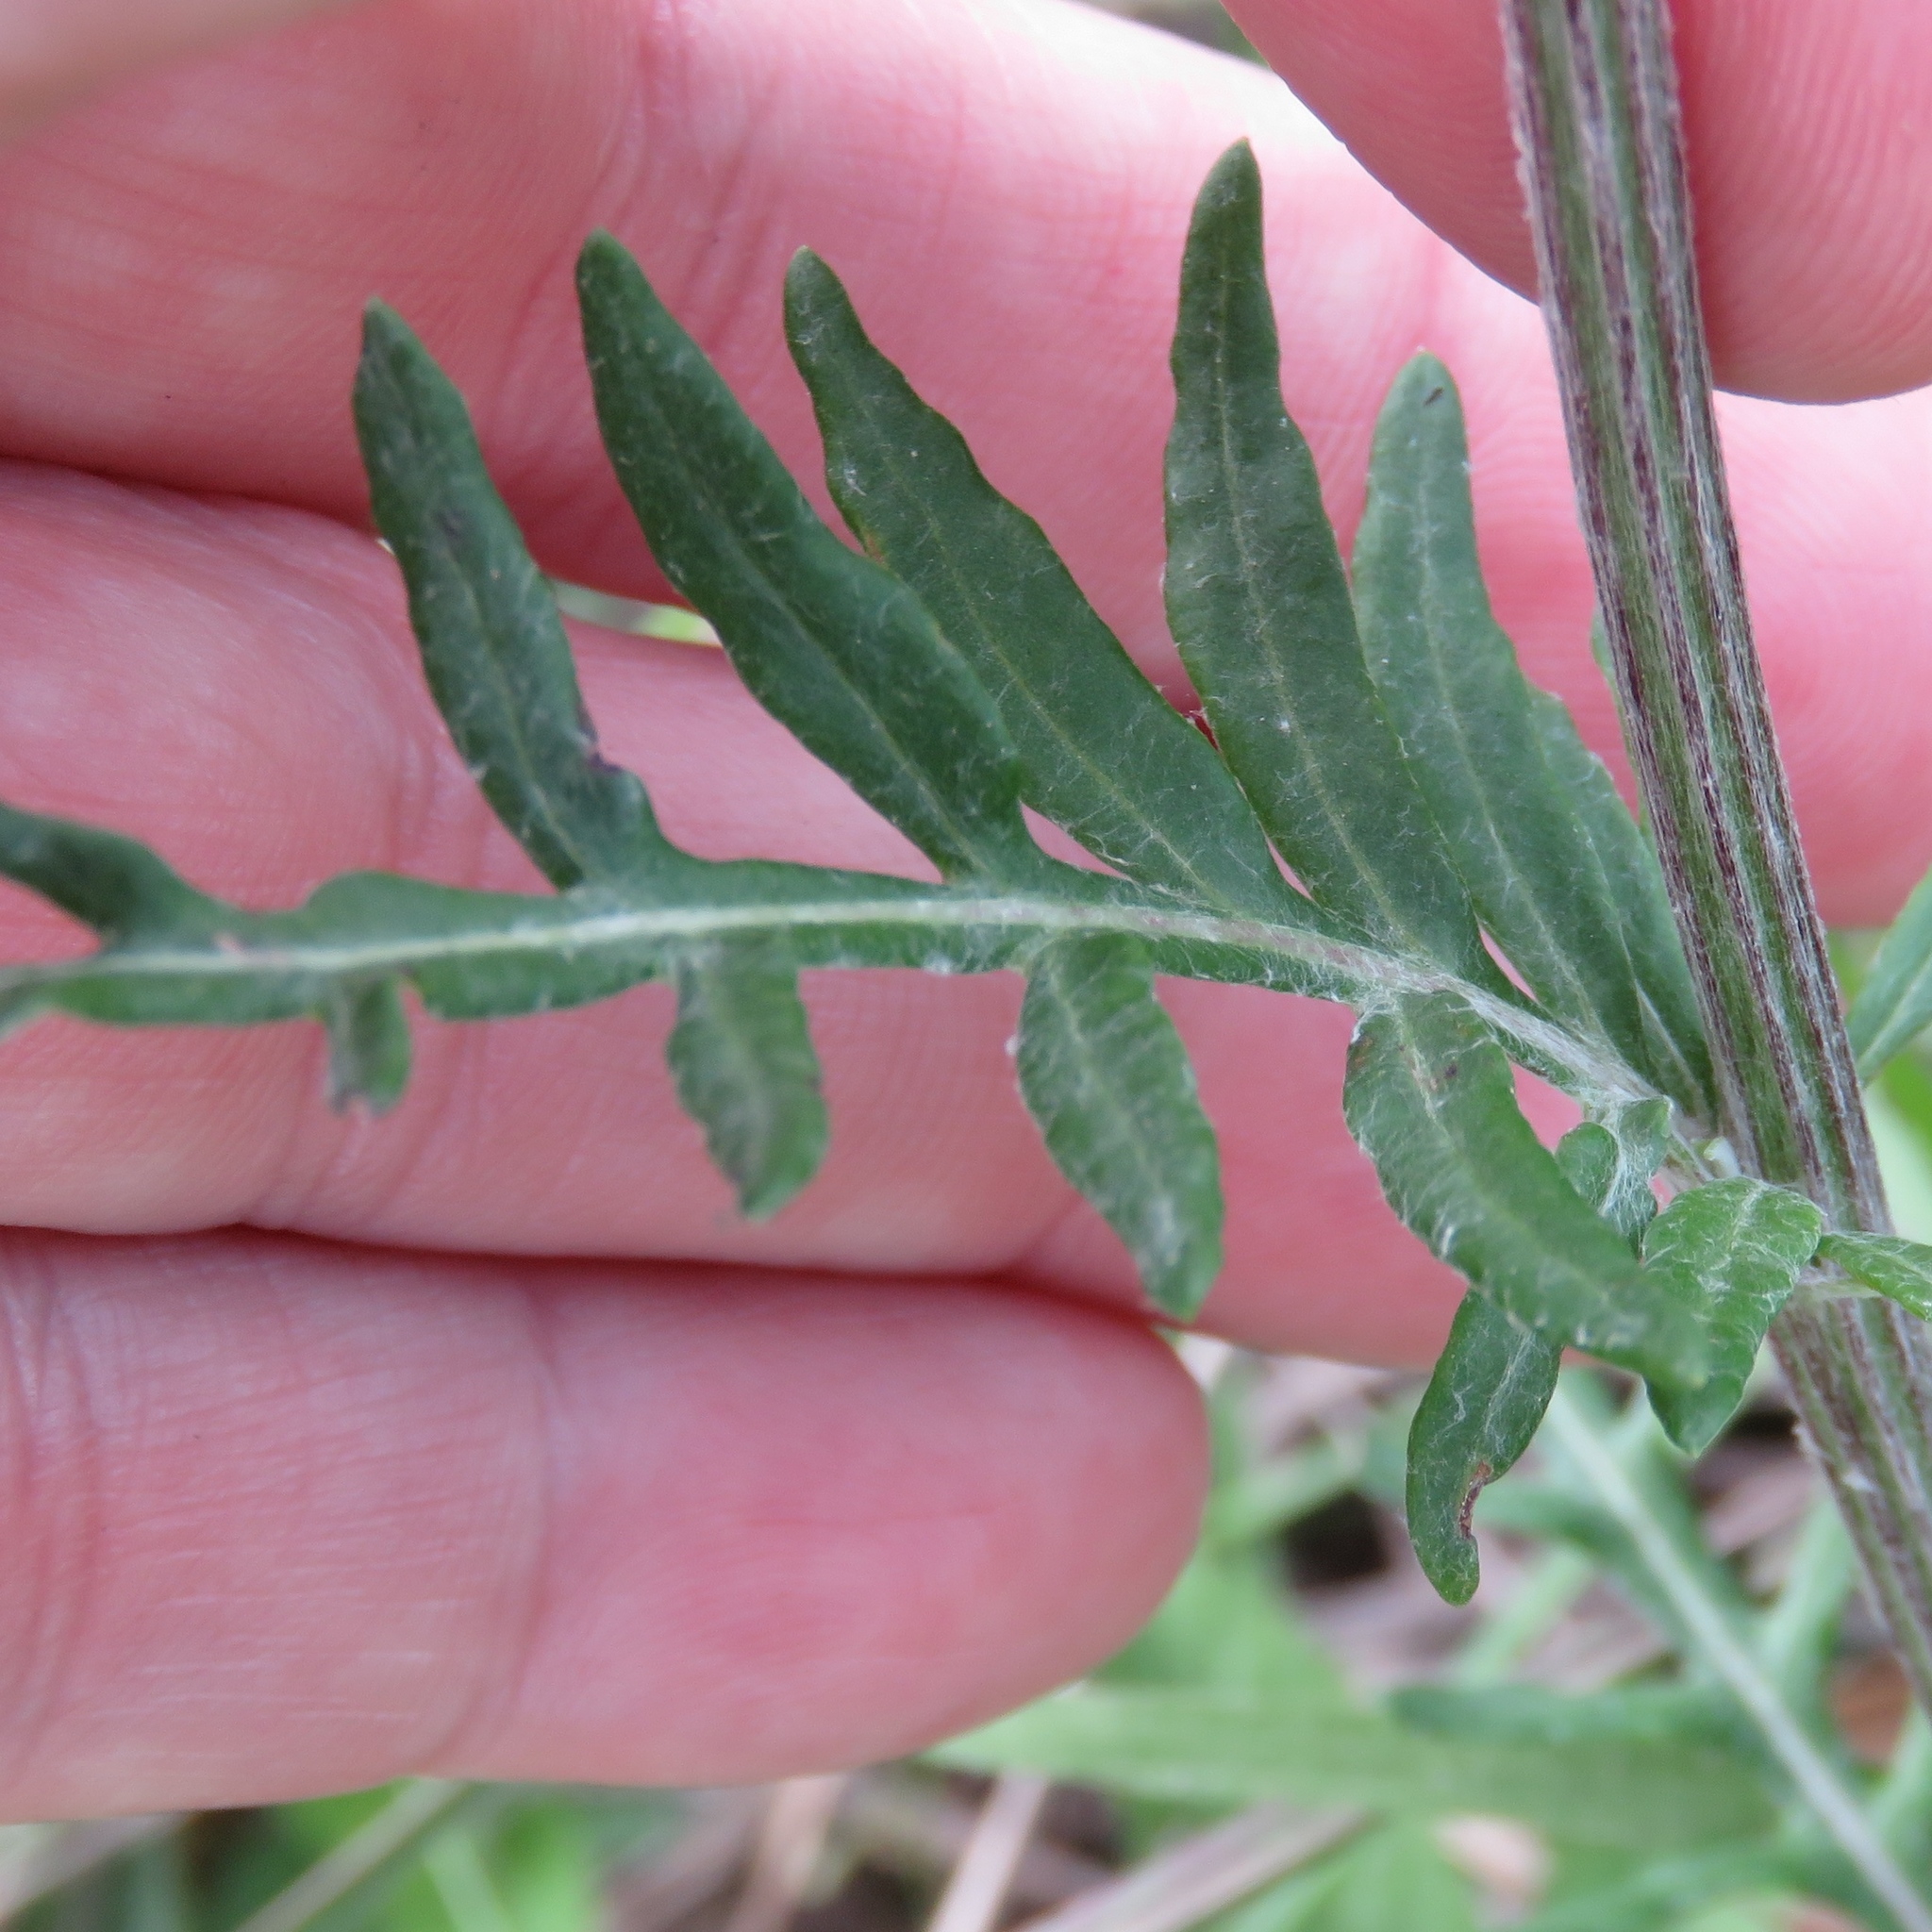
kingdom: Plantae
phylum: Tracheophyta
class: Magnoliopsida
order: Asterales
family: Asteraceae
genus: Hymenopappus
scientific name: Hymenopappus artemisiifolius
